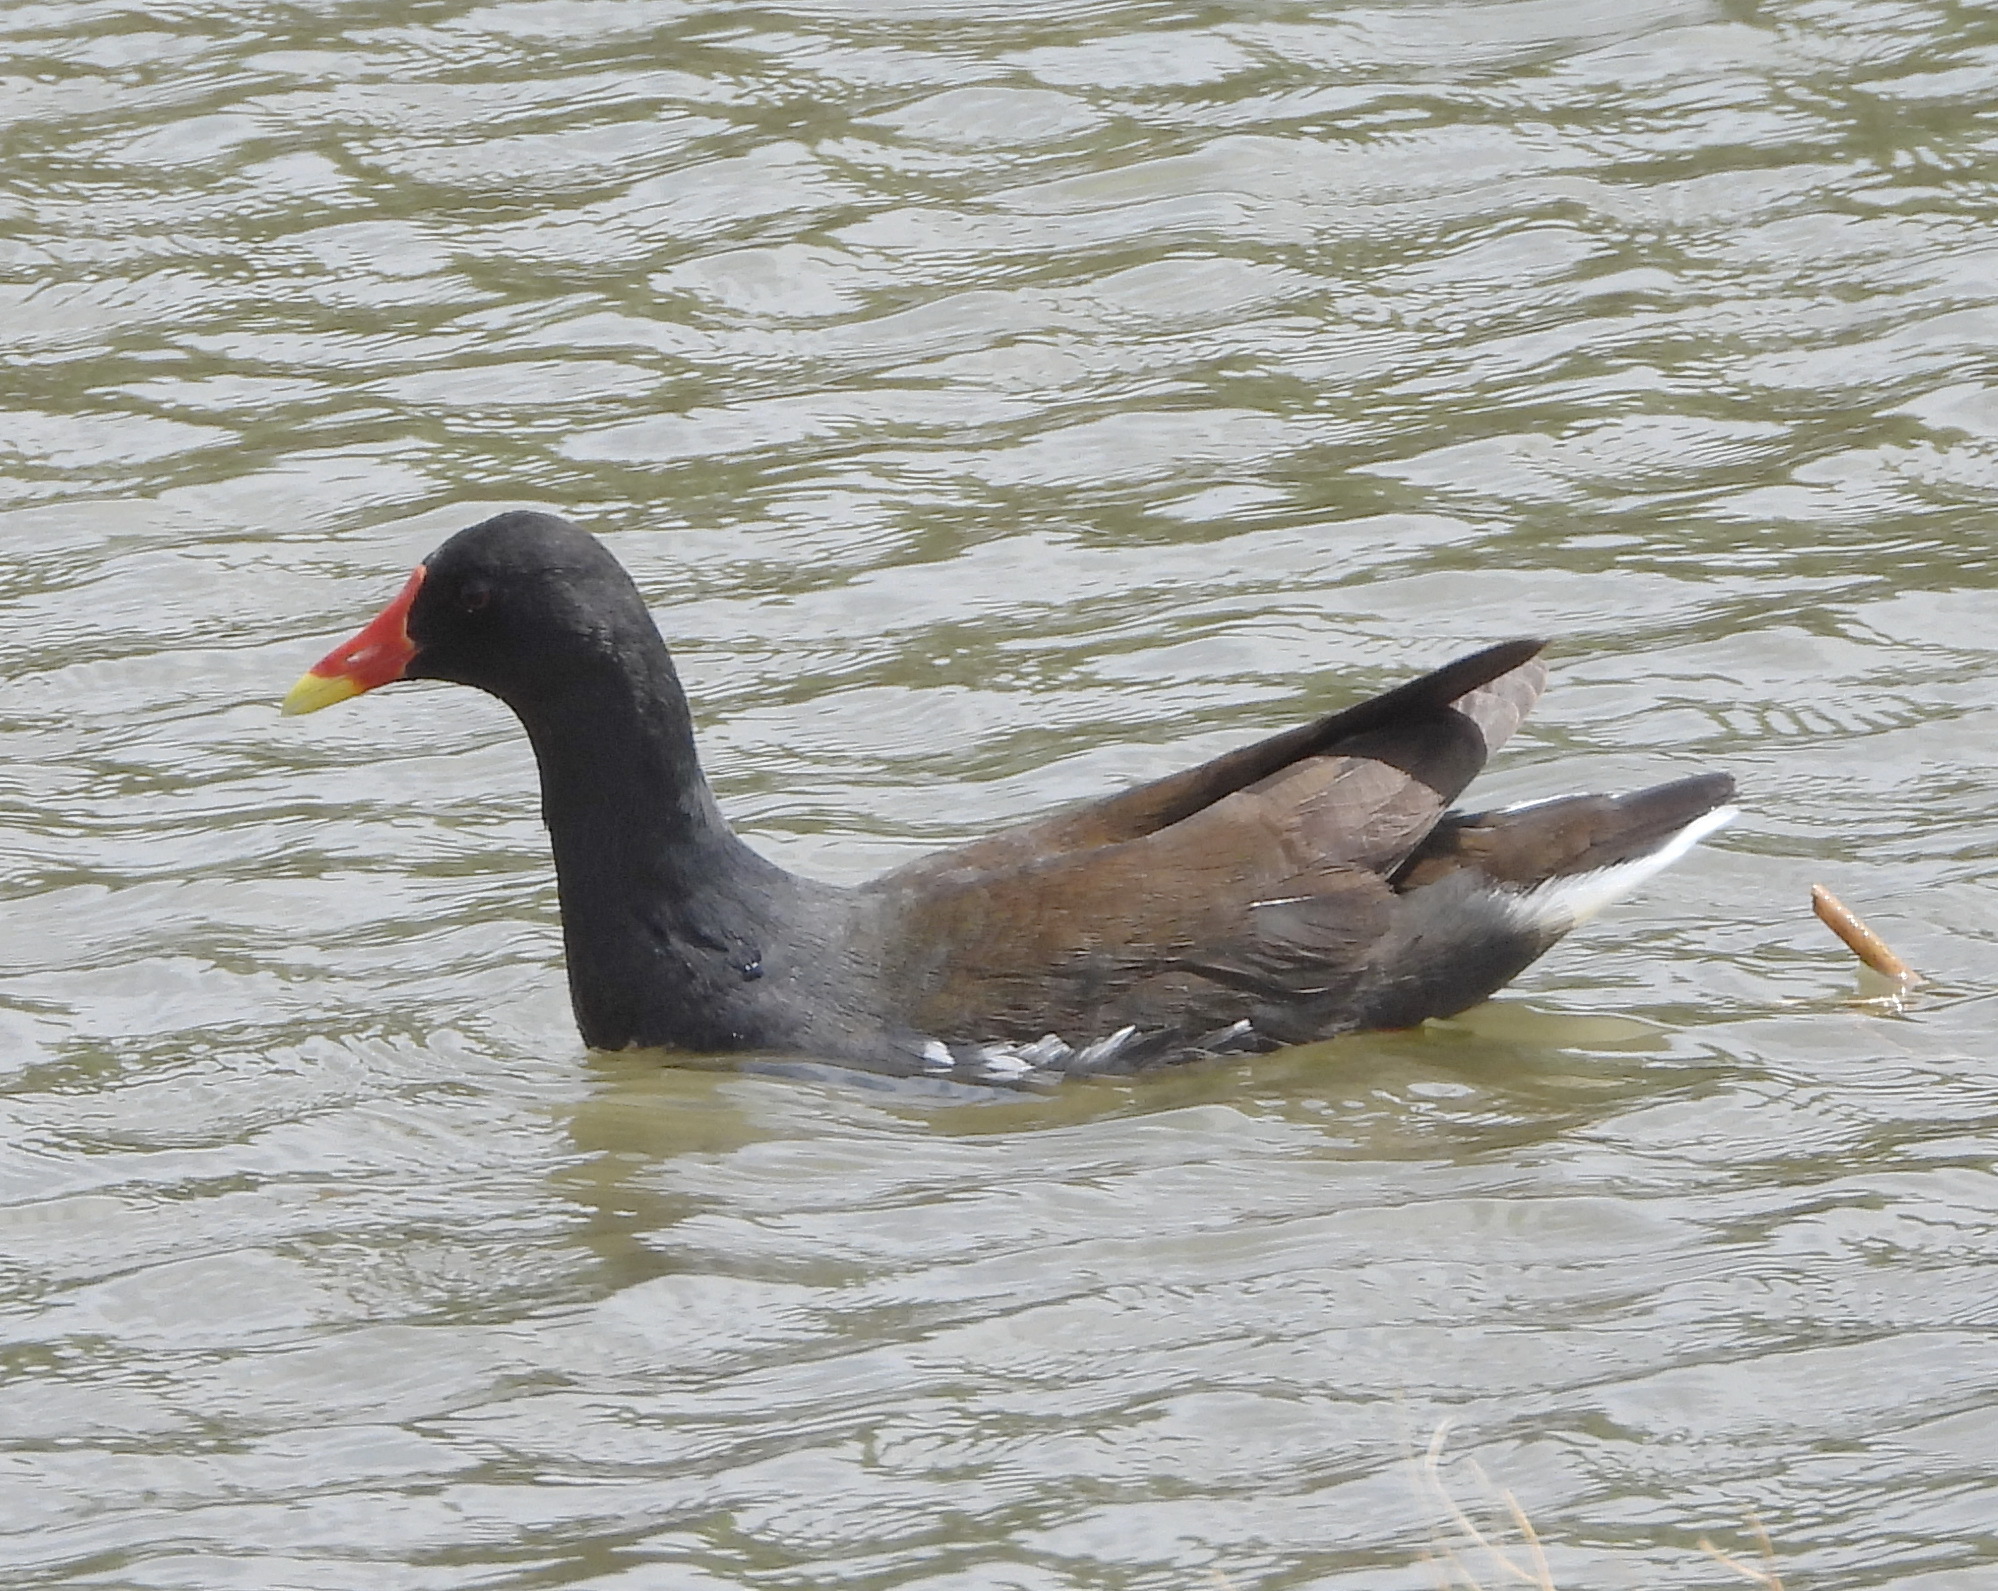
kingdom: Animalia
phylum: Chordata
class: Aves
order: Gruiformes
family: Rallidae
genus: Gallinula
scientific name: Gallinula chloropus
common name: Common moorhen
